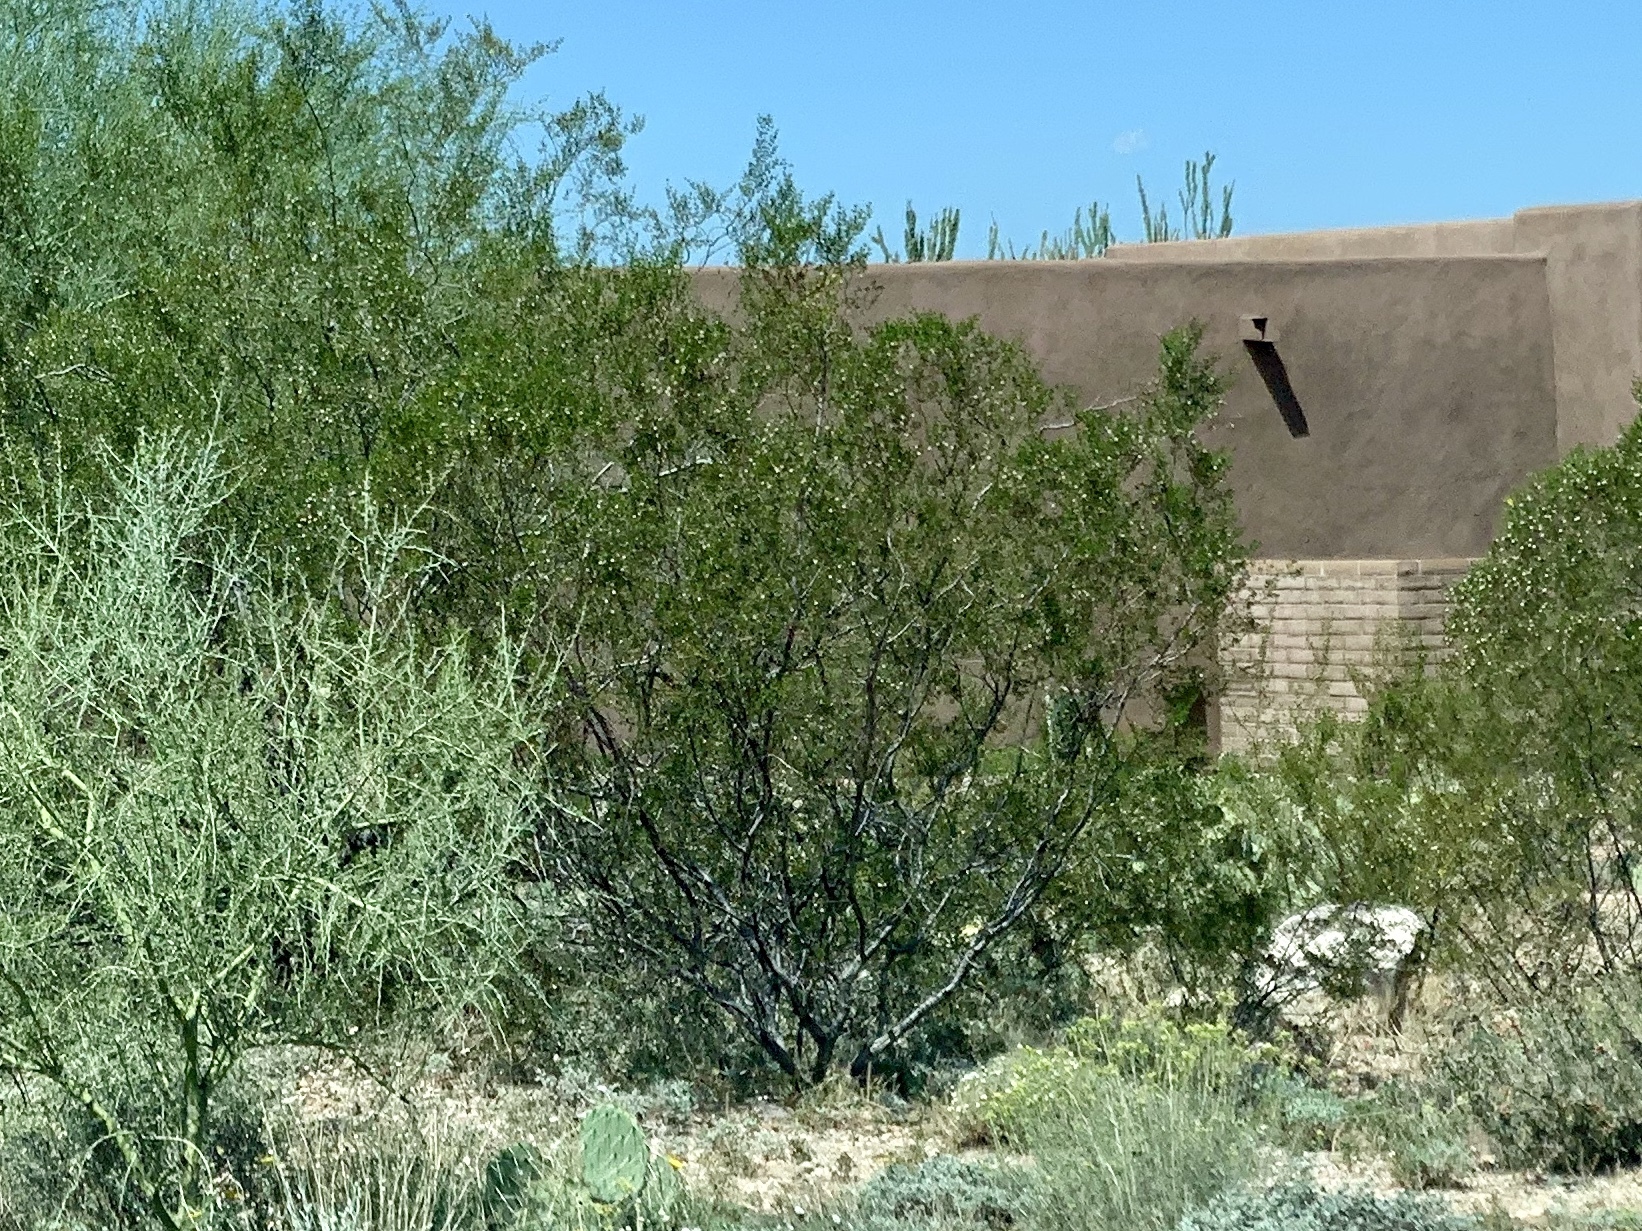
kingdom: Plantae
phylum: Tracheophyta
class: Magnoliopsida
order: Zygophyllales
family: Zygophyllaceae
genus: Larrea
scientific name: Larrea tridentata
